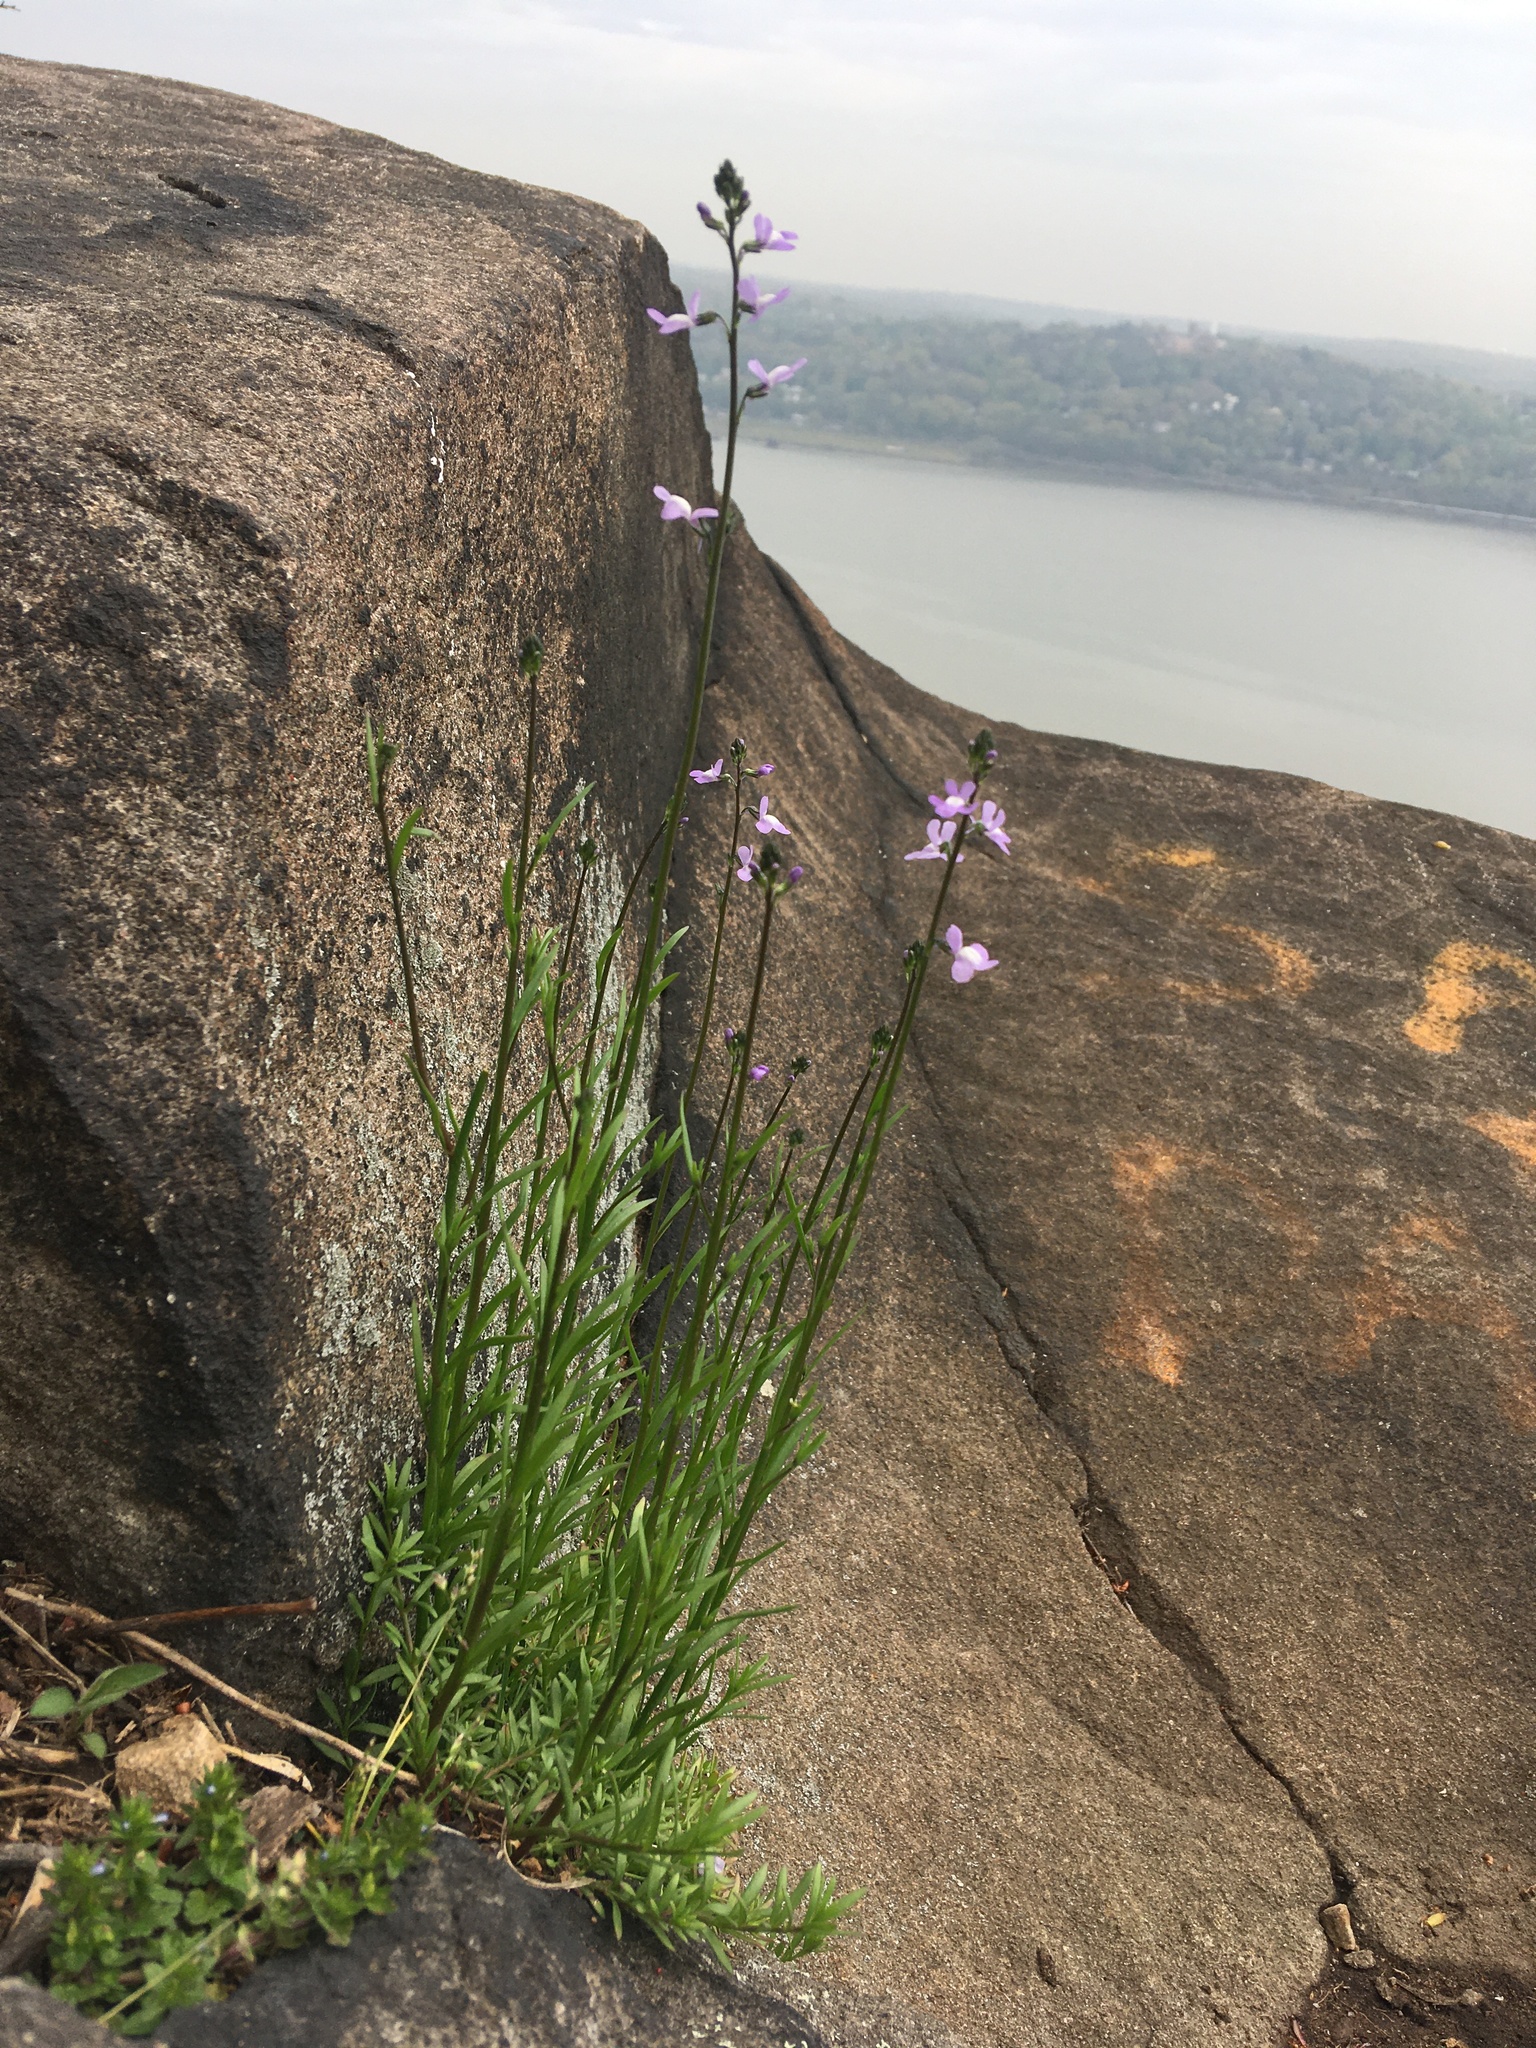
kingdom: Plantae
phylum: Tracheophyta
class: Magnoliopsida
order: Lamiales
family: Plantaginaceae
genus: Nuttallanthus
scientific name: Nuttallanthus canadensis
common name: Blue toadflax
